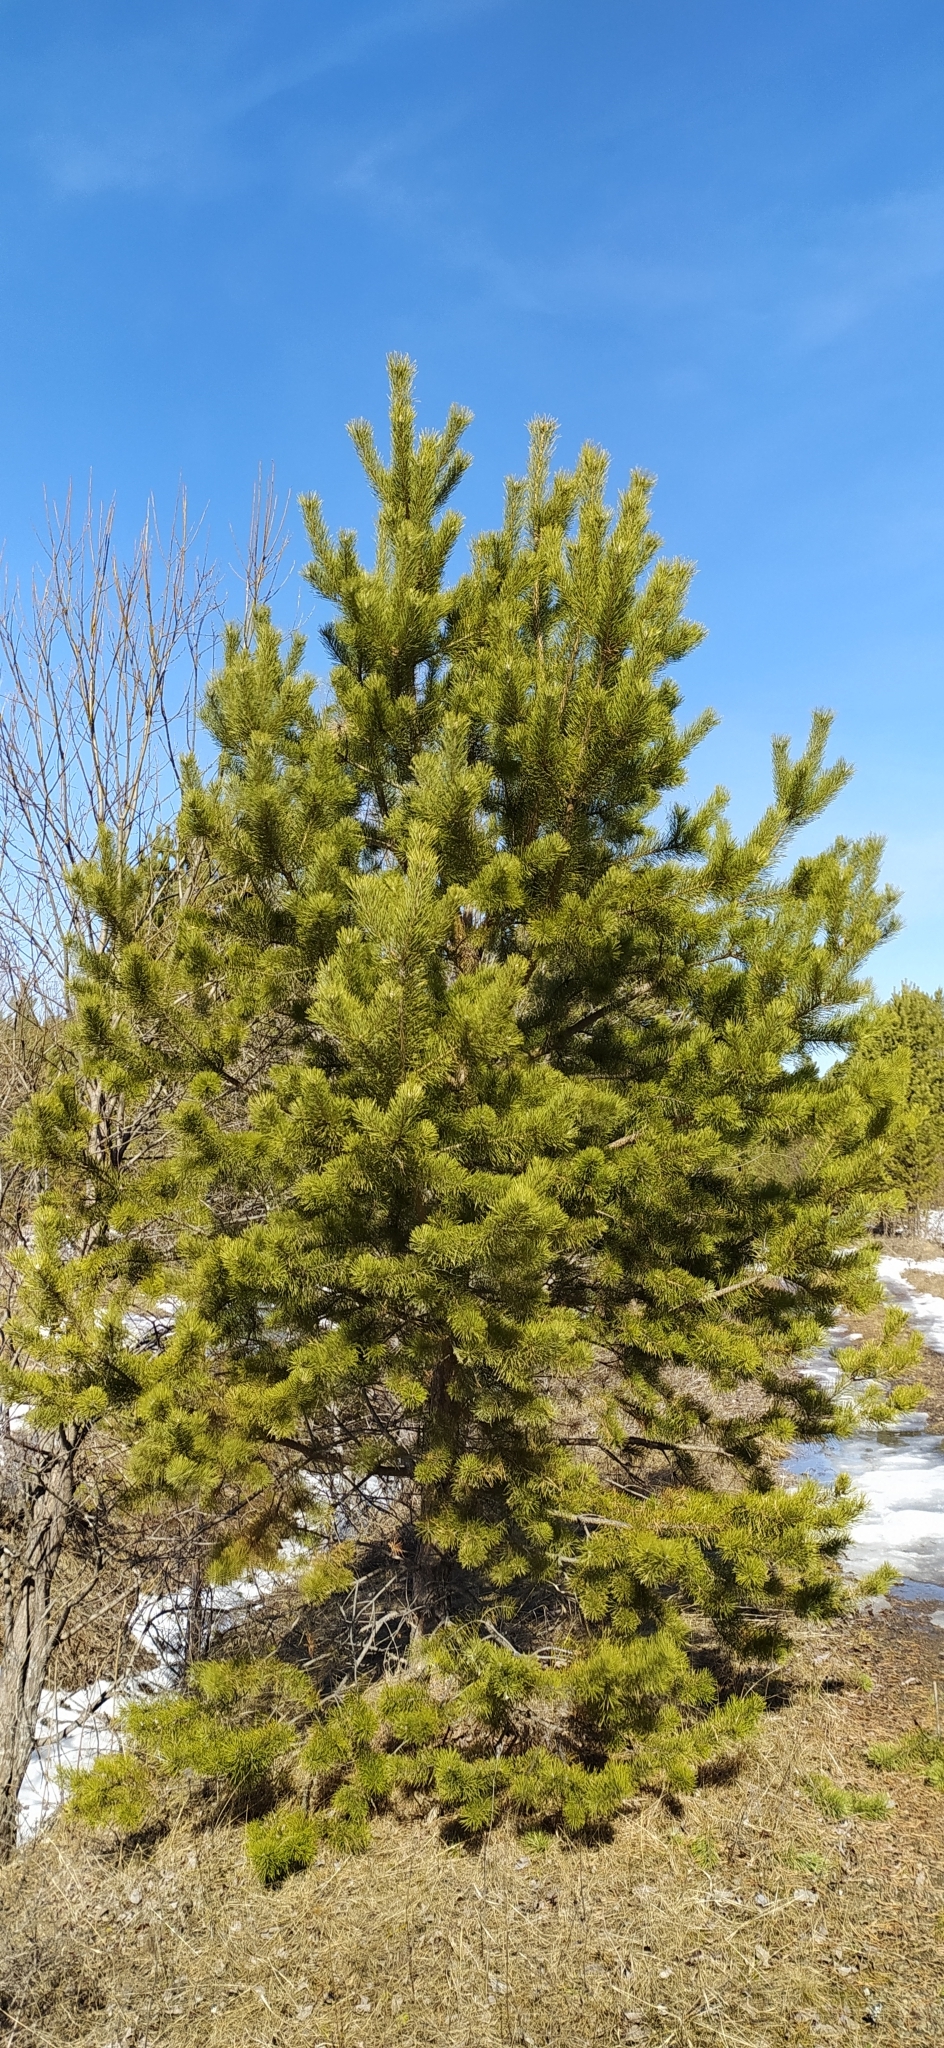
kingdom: Plantae
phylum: Tracheophyta
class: Pinopsida
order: Pinales
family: Pinaceae
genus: Pinus
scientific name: Pinus sylvestris
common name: Scots pine
